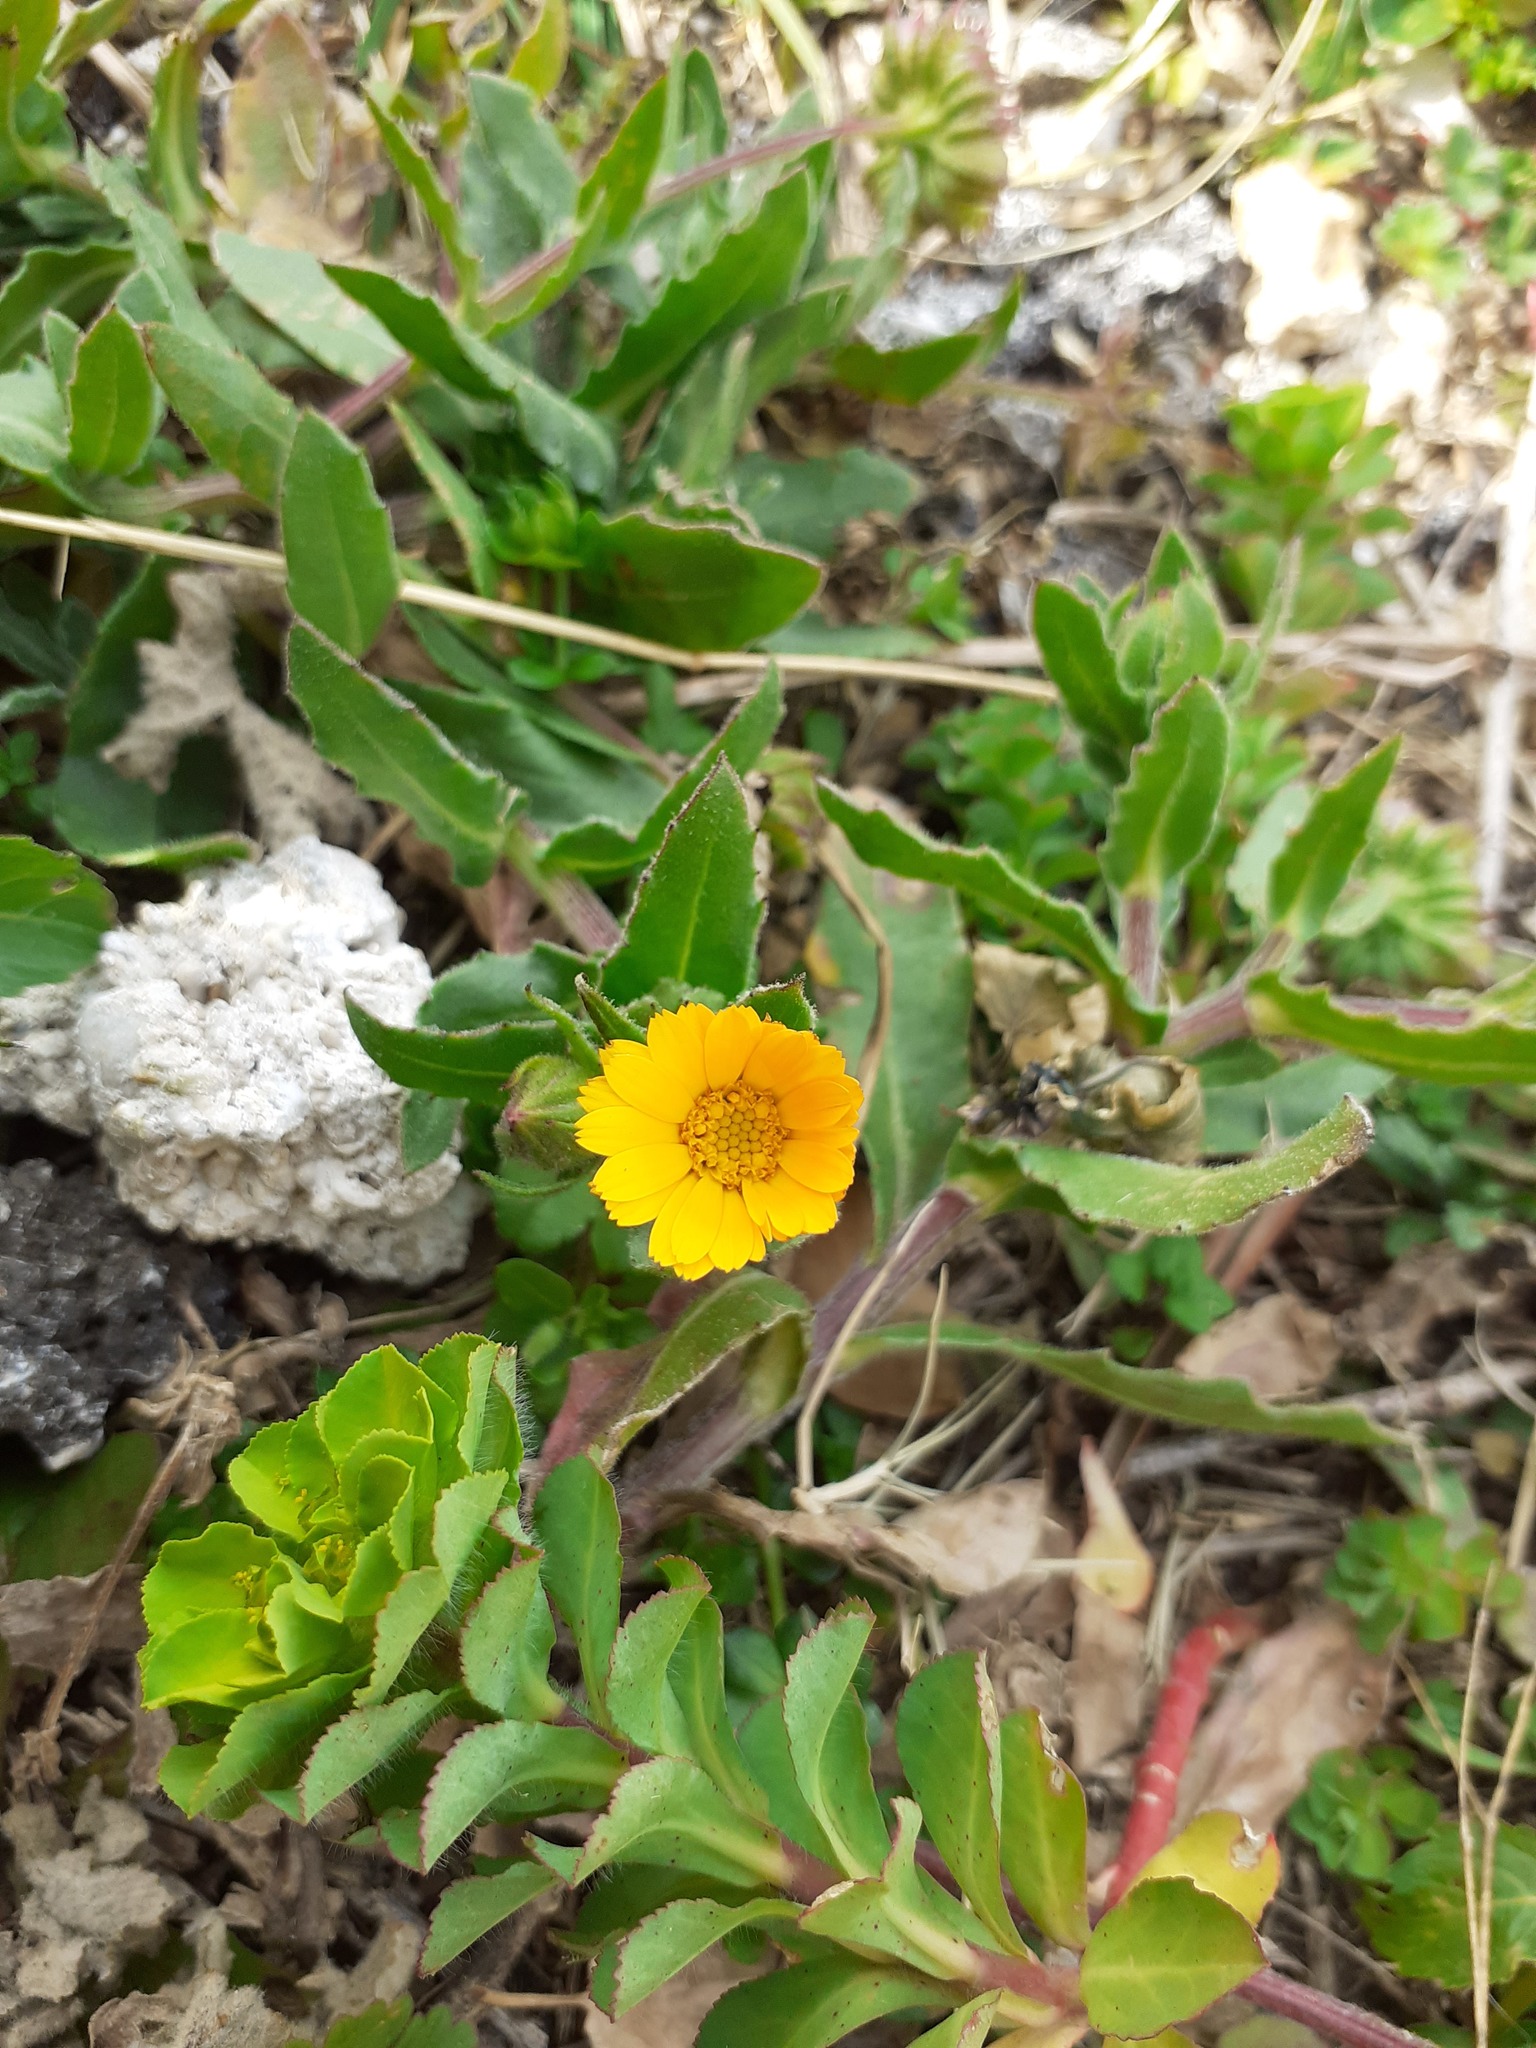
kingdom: Plantae
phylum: Tracheophyta
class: Magnoliopsida
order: Asterales
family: Asteraceae
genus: Calendula
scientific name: Calendula arvensis
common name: Field marigold
